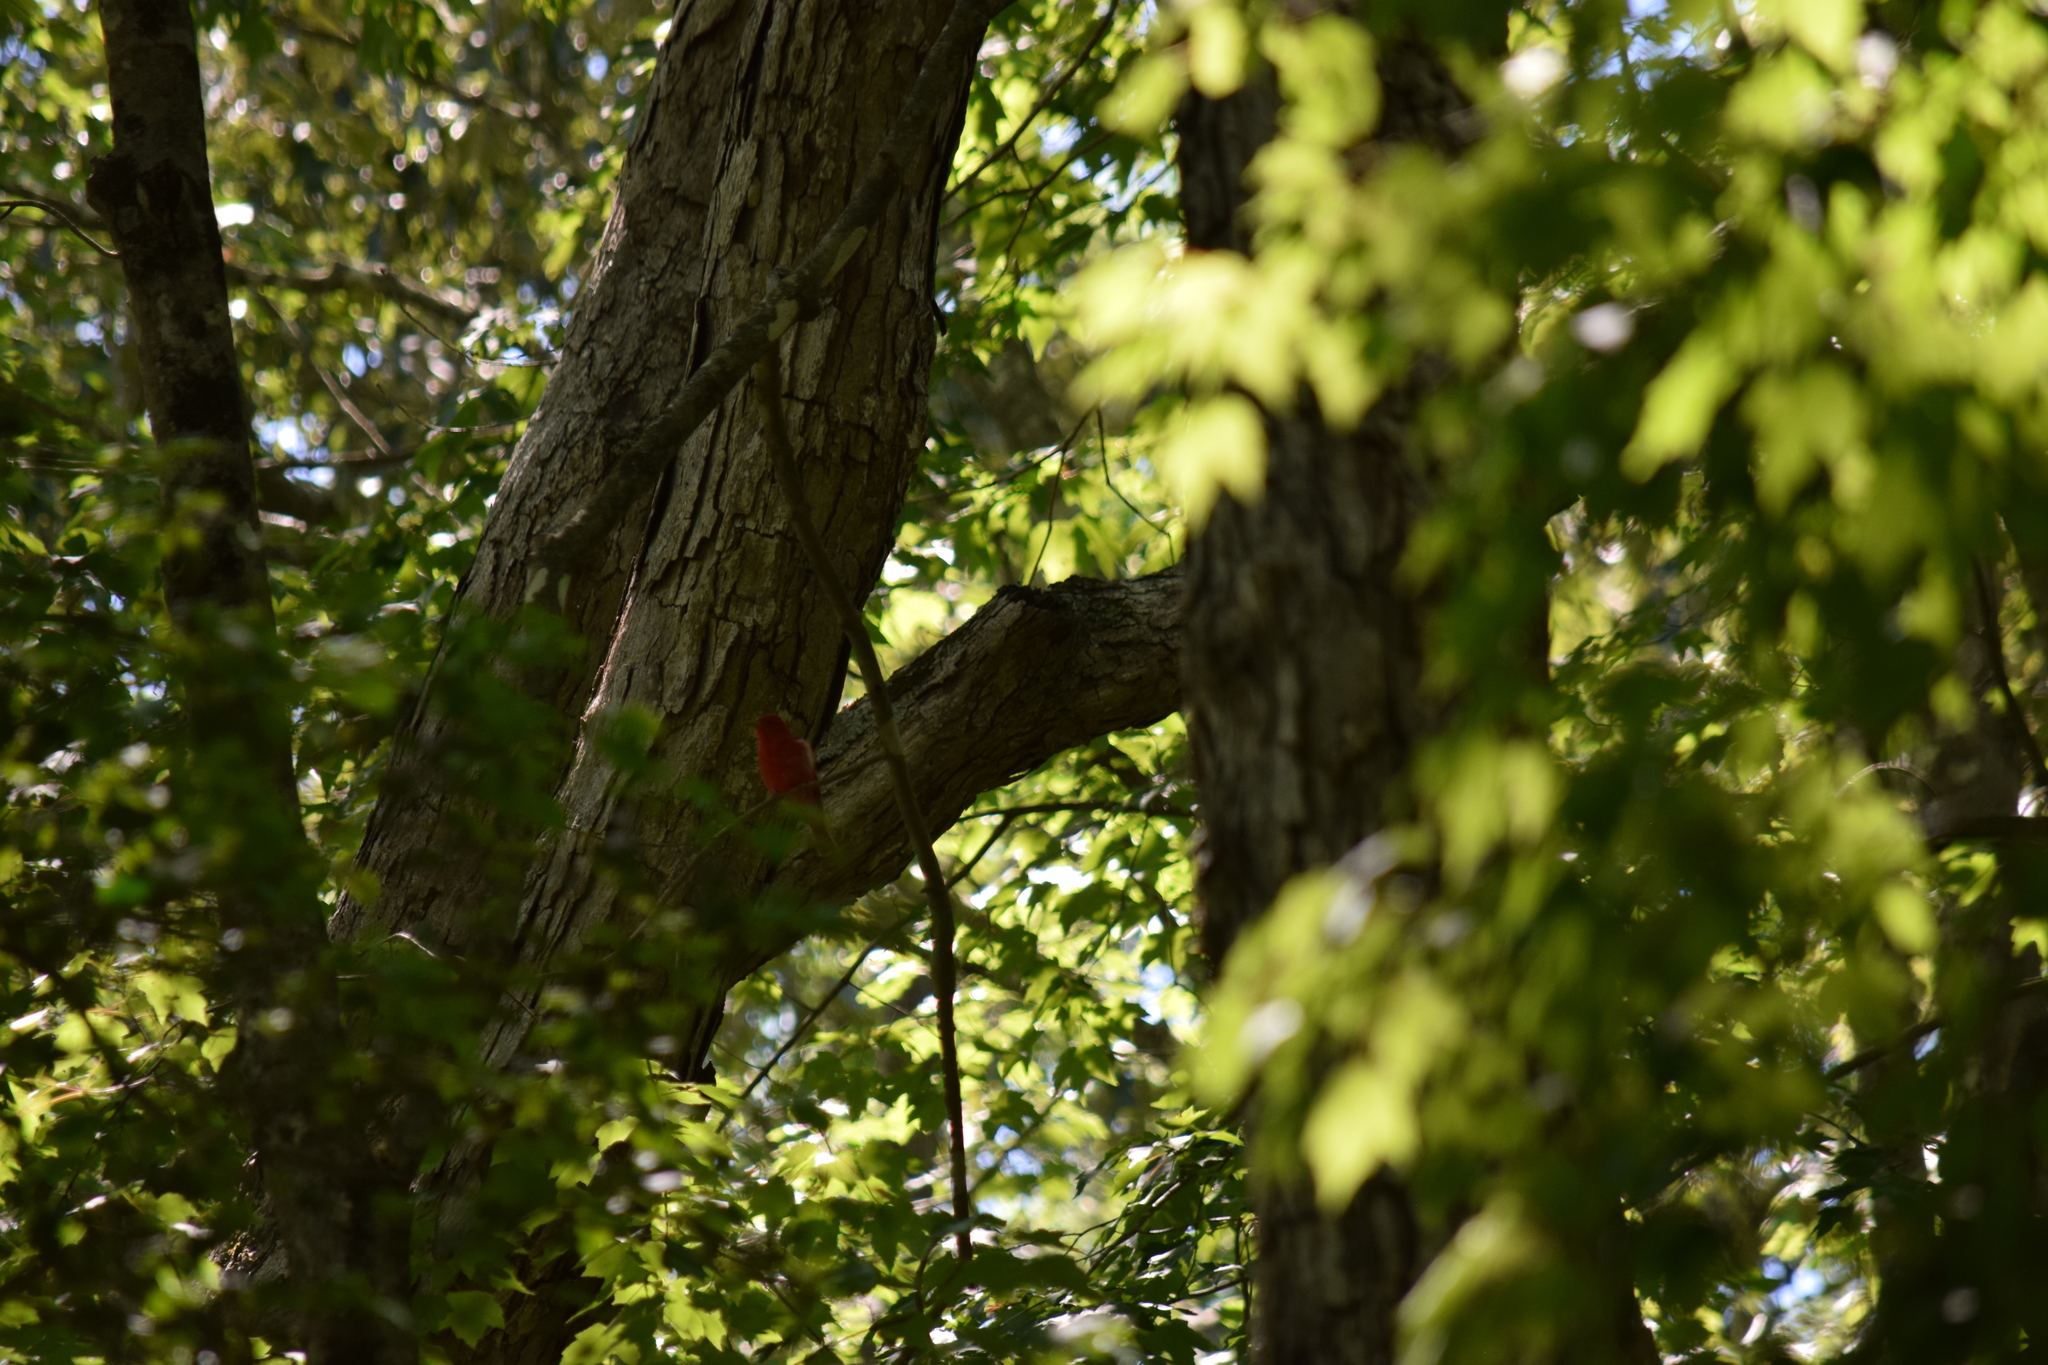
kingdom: Animalia
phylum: Chordata
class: Aves
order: Passeriformes
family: Cardinalidae
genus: Piranga
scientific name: Piranga rubra
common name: Summer tanager
